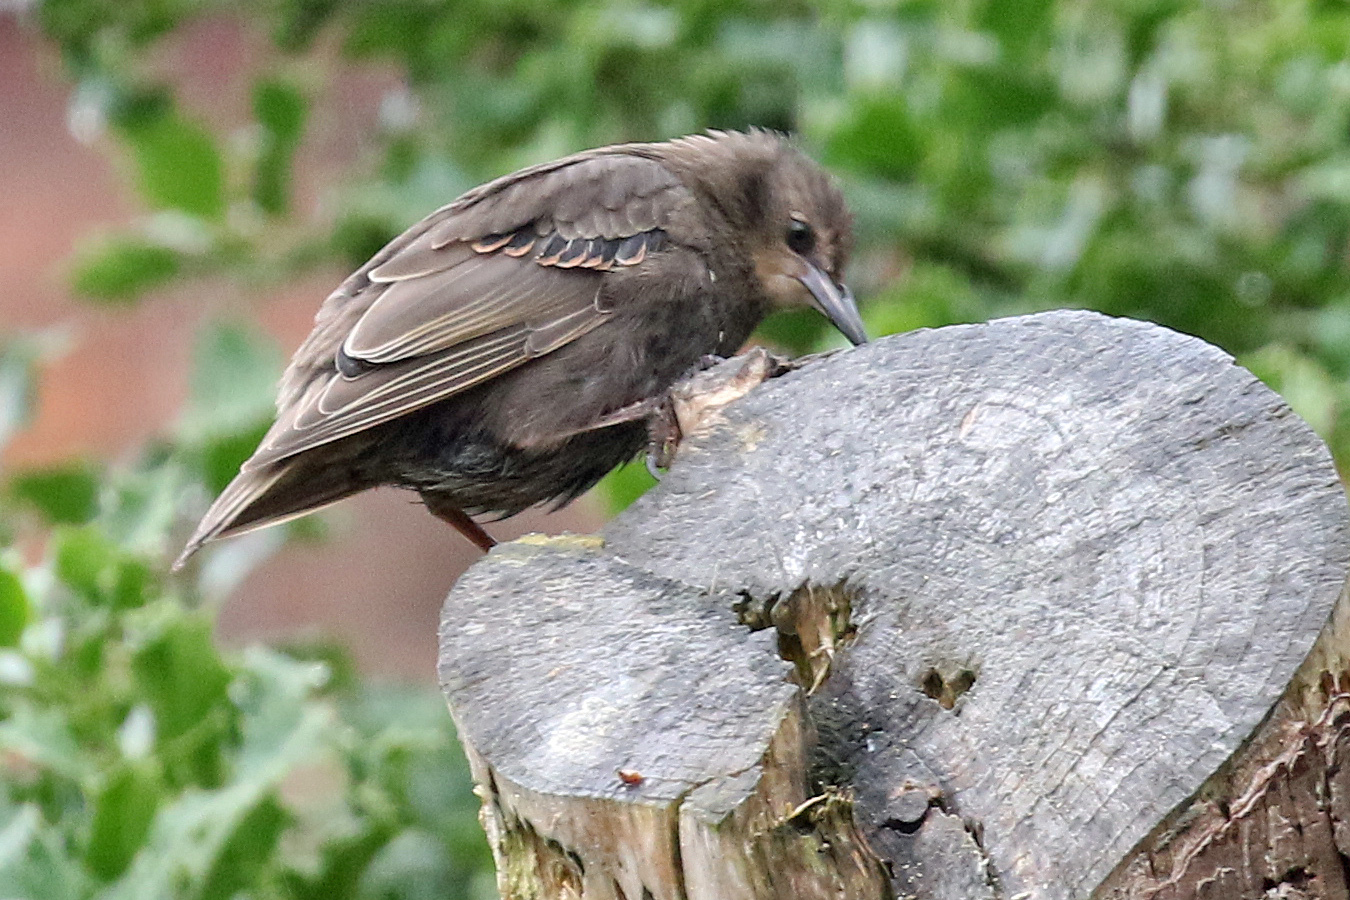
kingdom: Animalia
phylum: Chordata
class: Aves
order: Passeriformes
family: Sturnidae
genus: Sturnus
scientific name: Sturnus vulgaris
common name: Common starling
